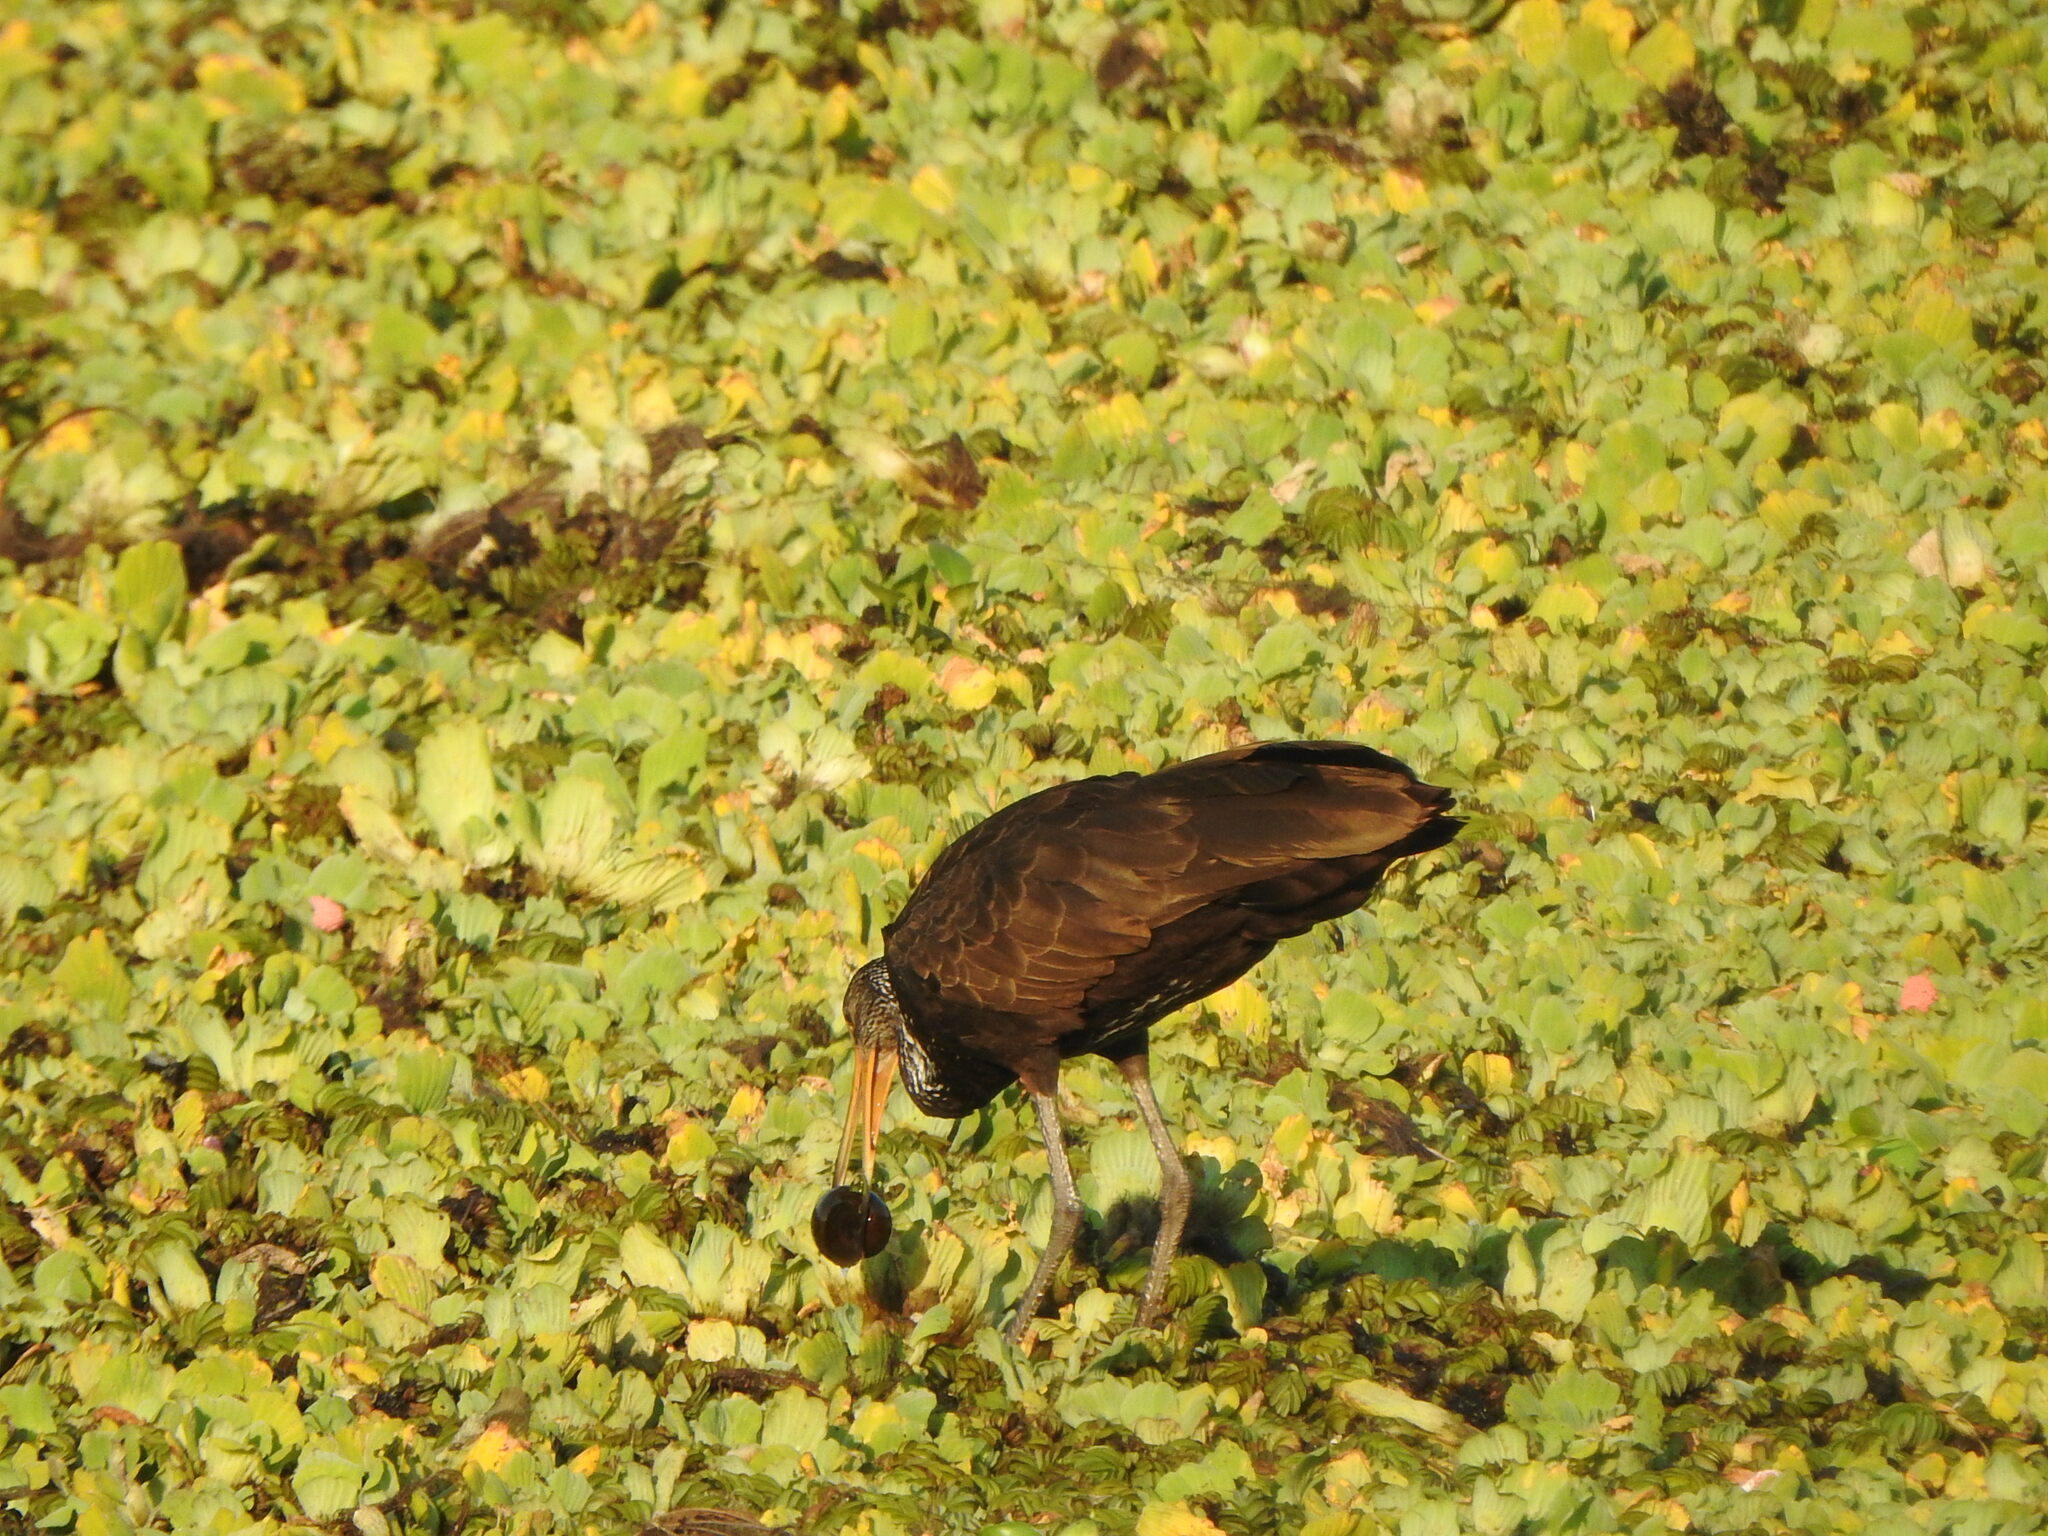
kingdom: Animalia
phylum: Chordata
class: Aves
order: Gruiformes
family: Aramidae
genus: Aramus
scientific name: Aramus guarauna
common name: Limpkin
